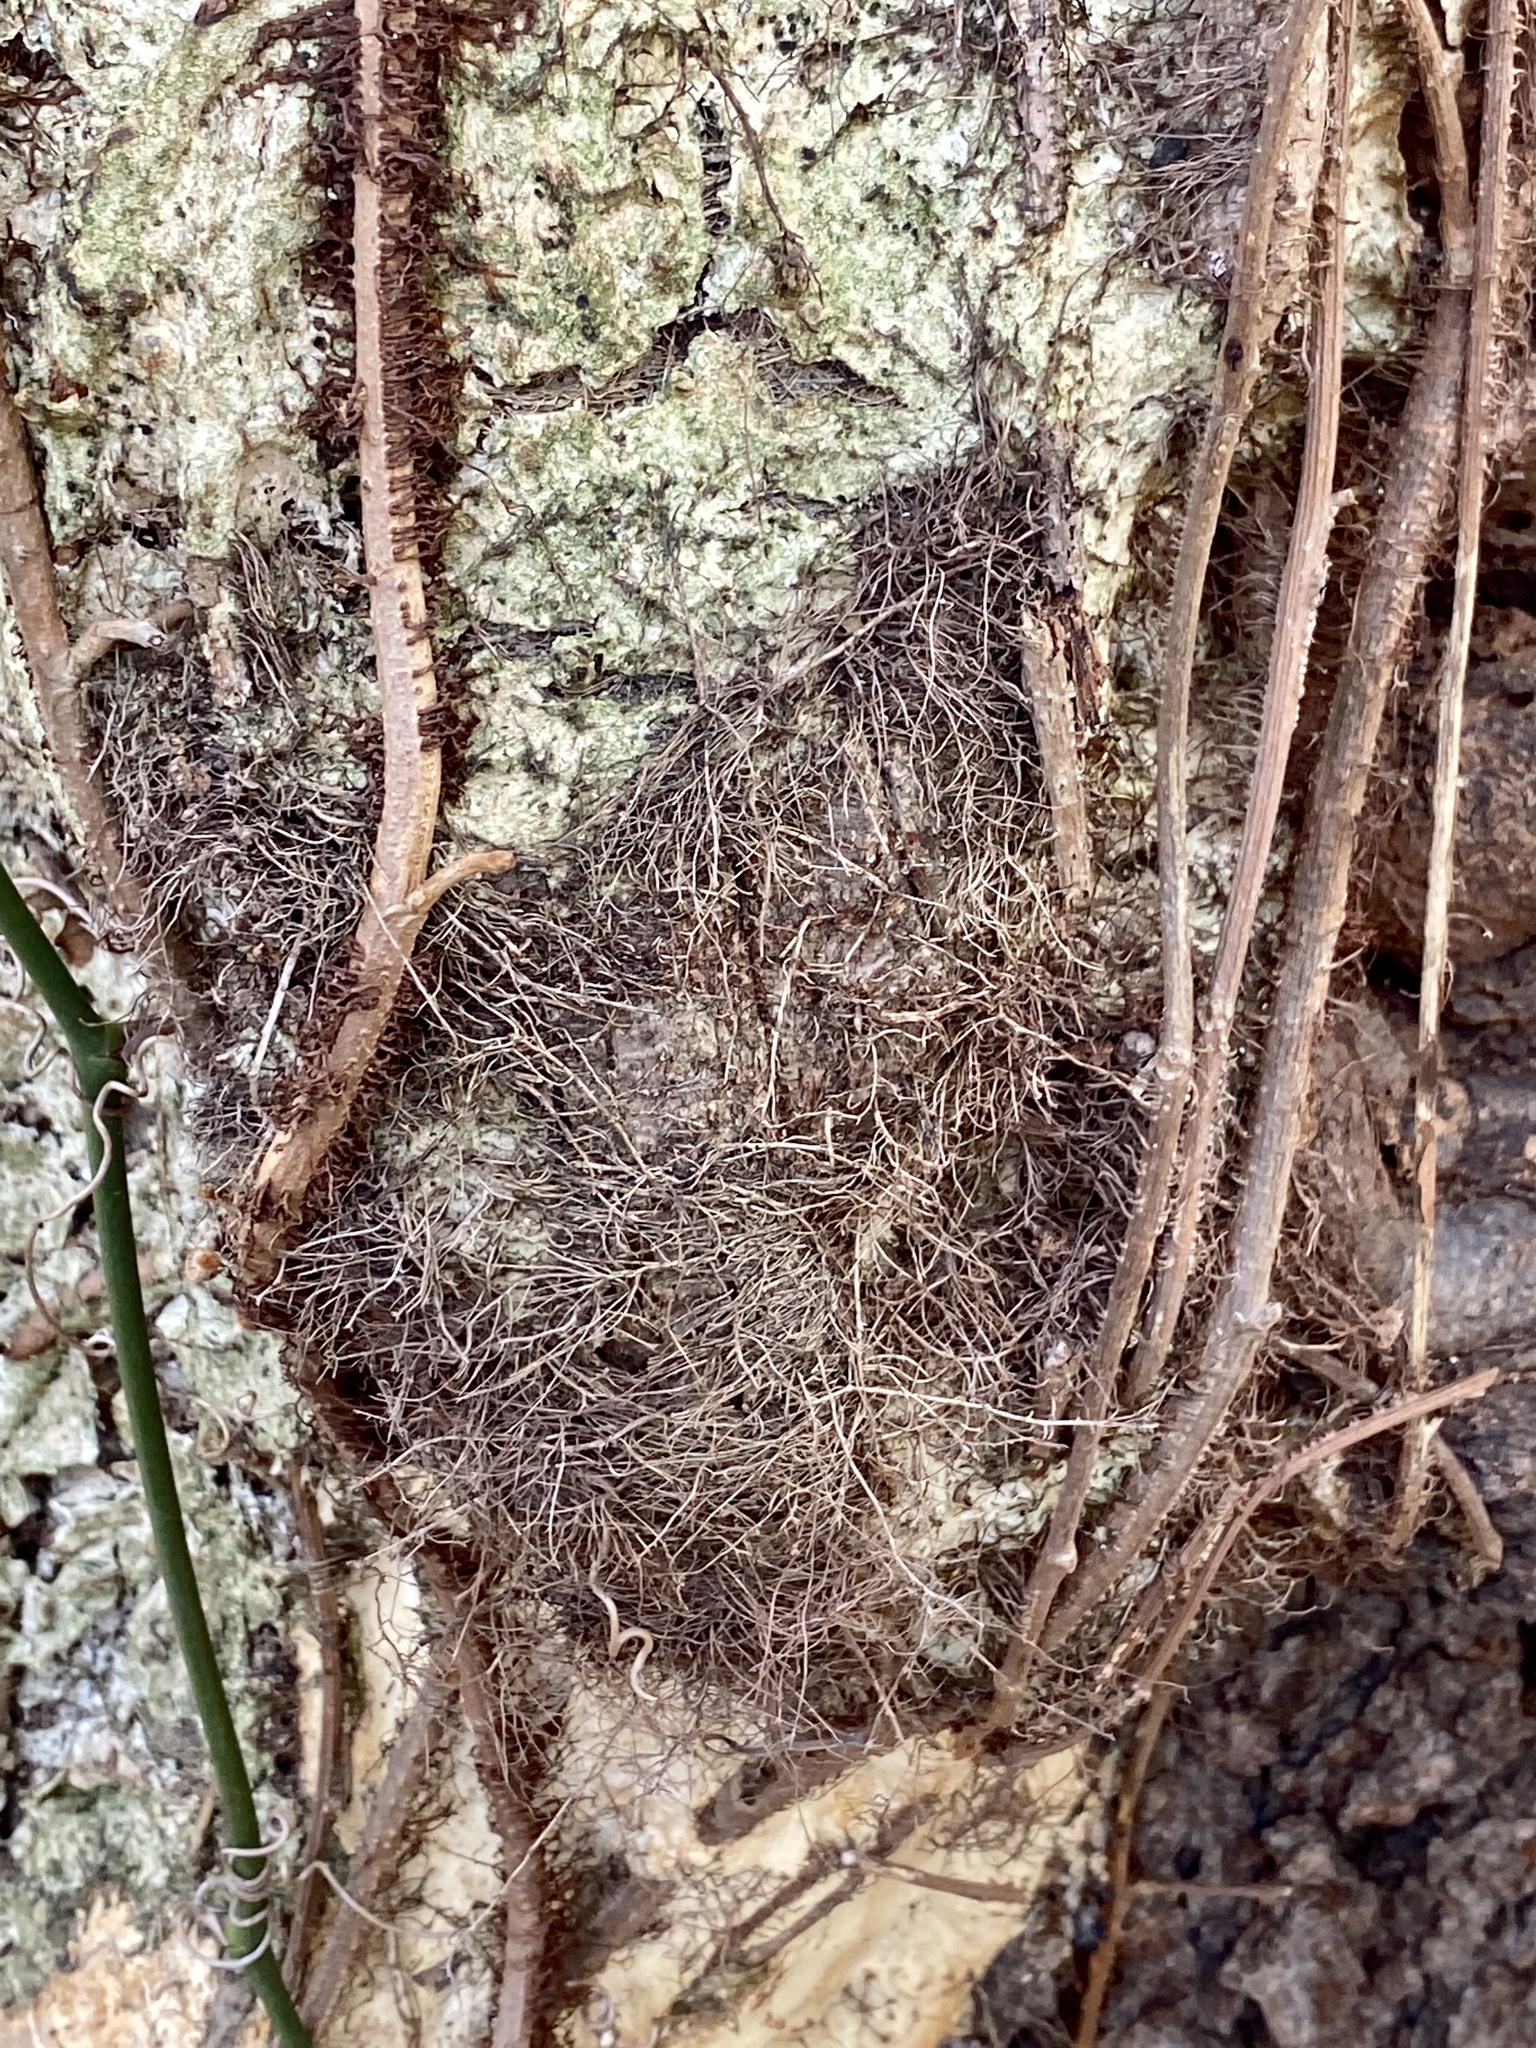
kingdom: Plantae
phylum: Tracheophyta
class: Magnoliopsida
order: Sapindales
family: Anacardiaceae
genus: Toxicodendron
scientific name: Toxicodendron radicans
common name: Poison ivy
